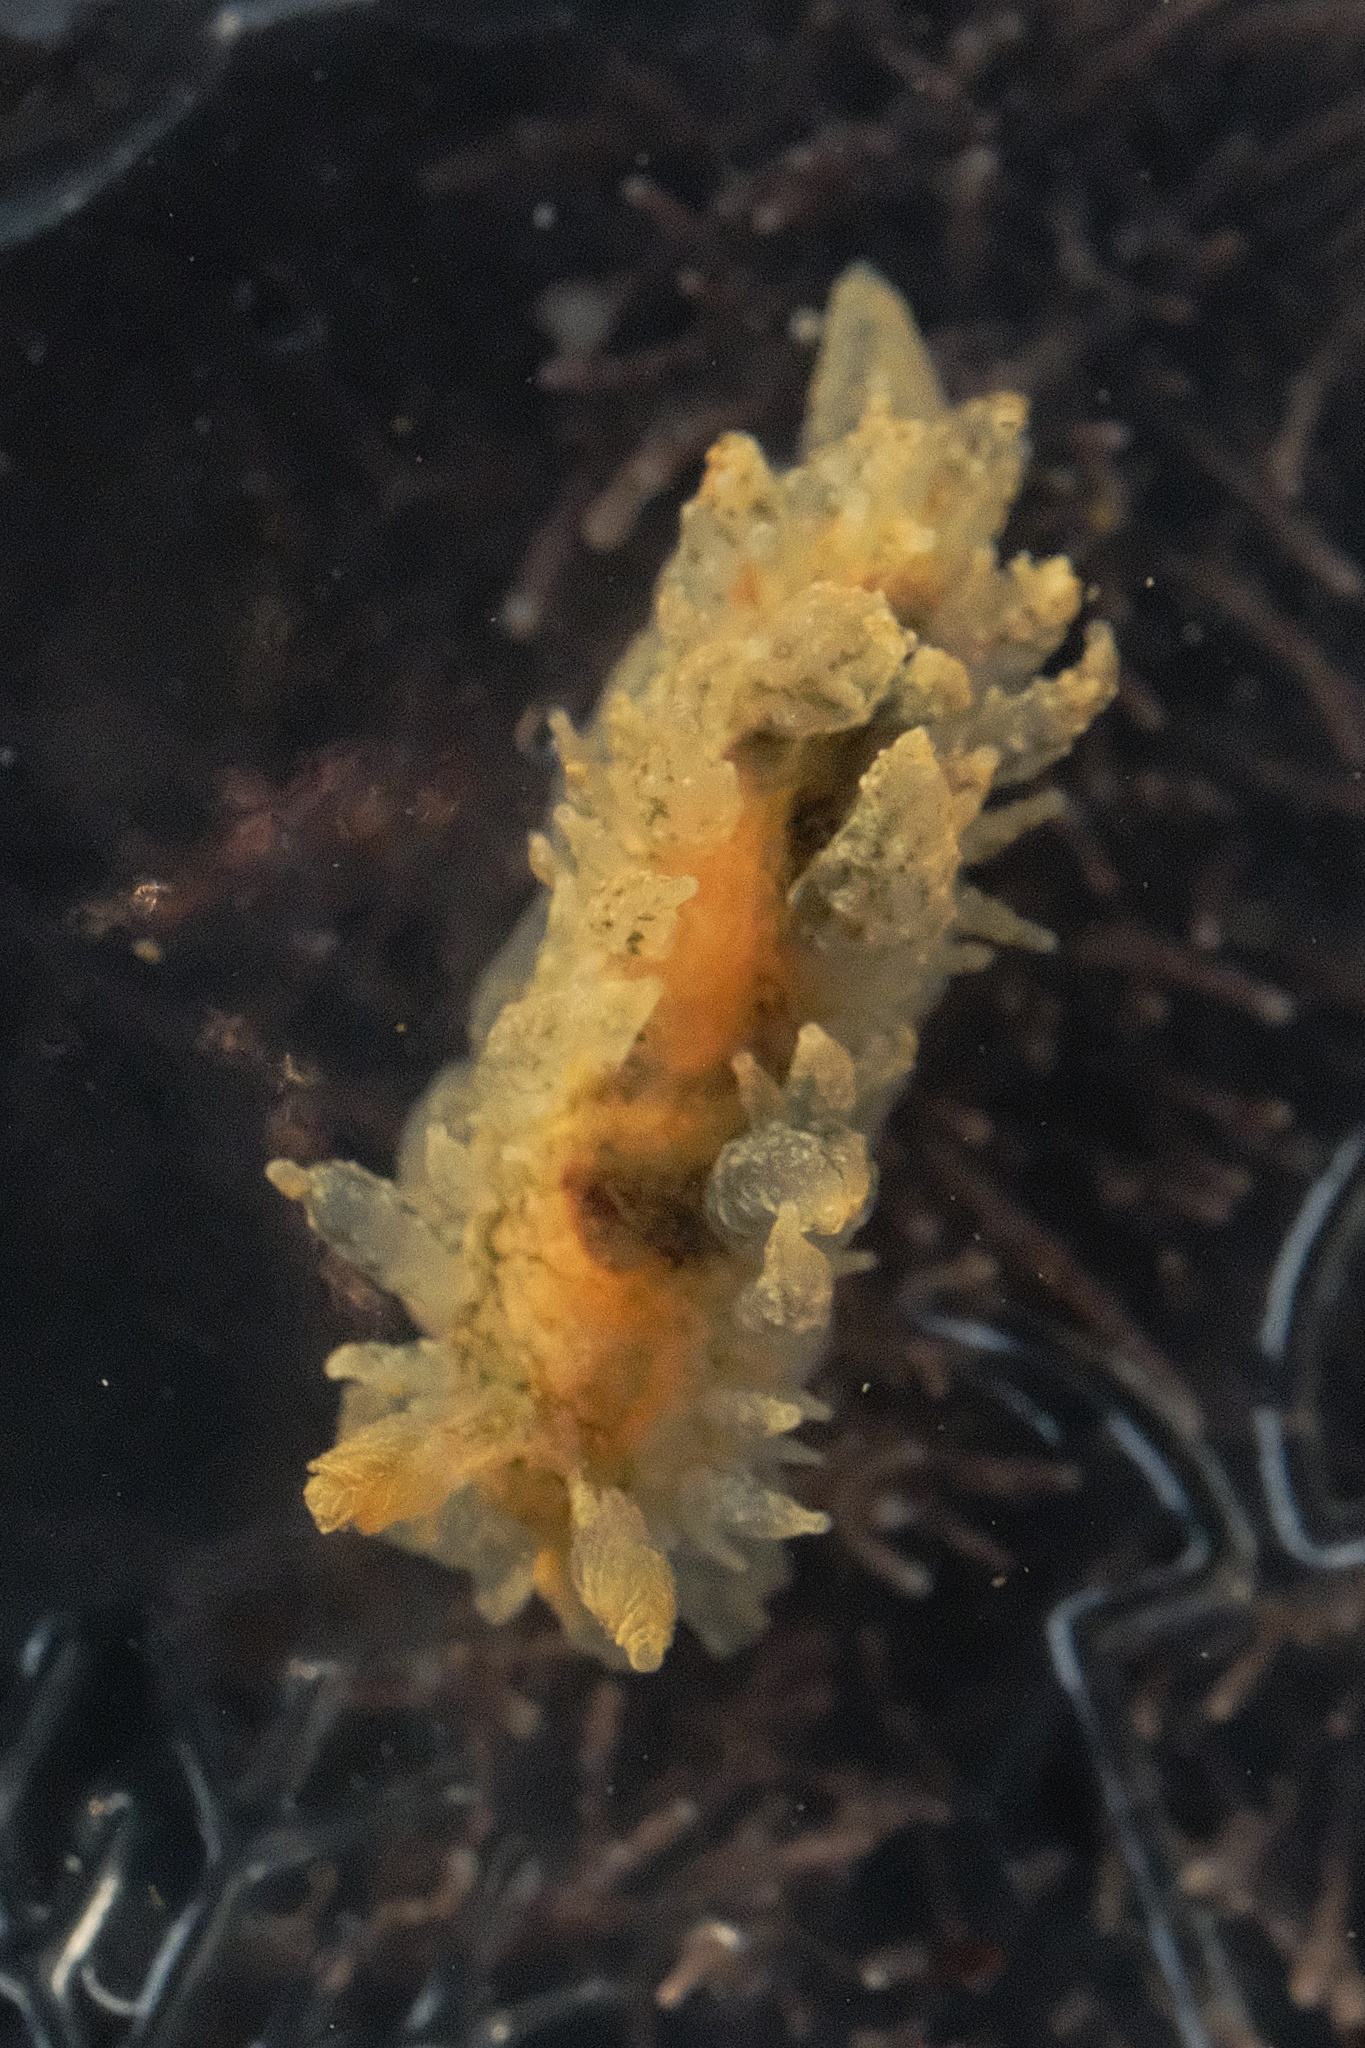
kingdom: Animalia
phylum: Mollusca
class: Gastropoda
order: Nudibranchia
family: Dironidae
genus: Dirona
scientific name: Dirona picta
